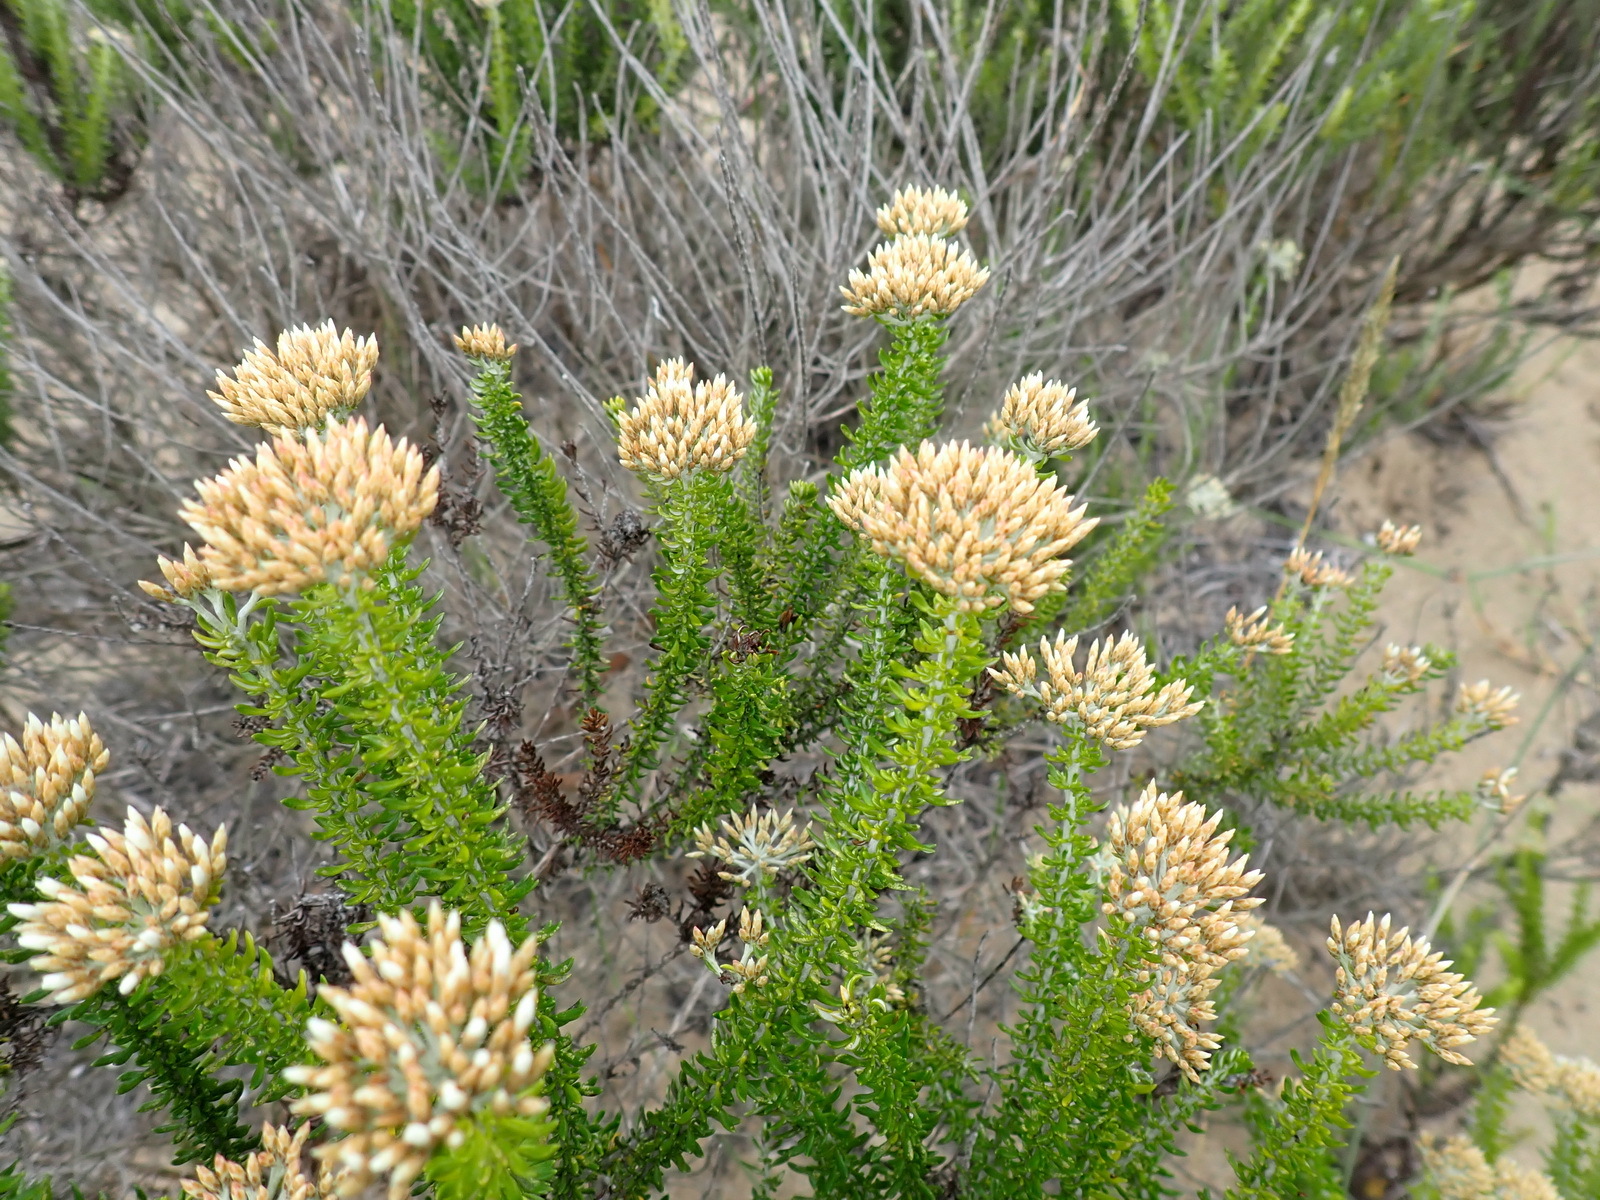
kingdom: Plantae
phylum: Tracheophyta
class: Magnoliopsida
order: Asterales
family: Asteraceae
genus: Metalasia
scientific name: Metalasia muricata
